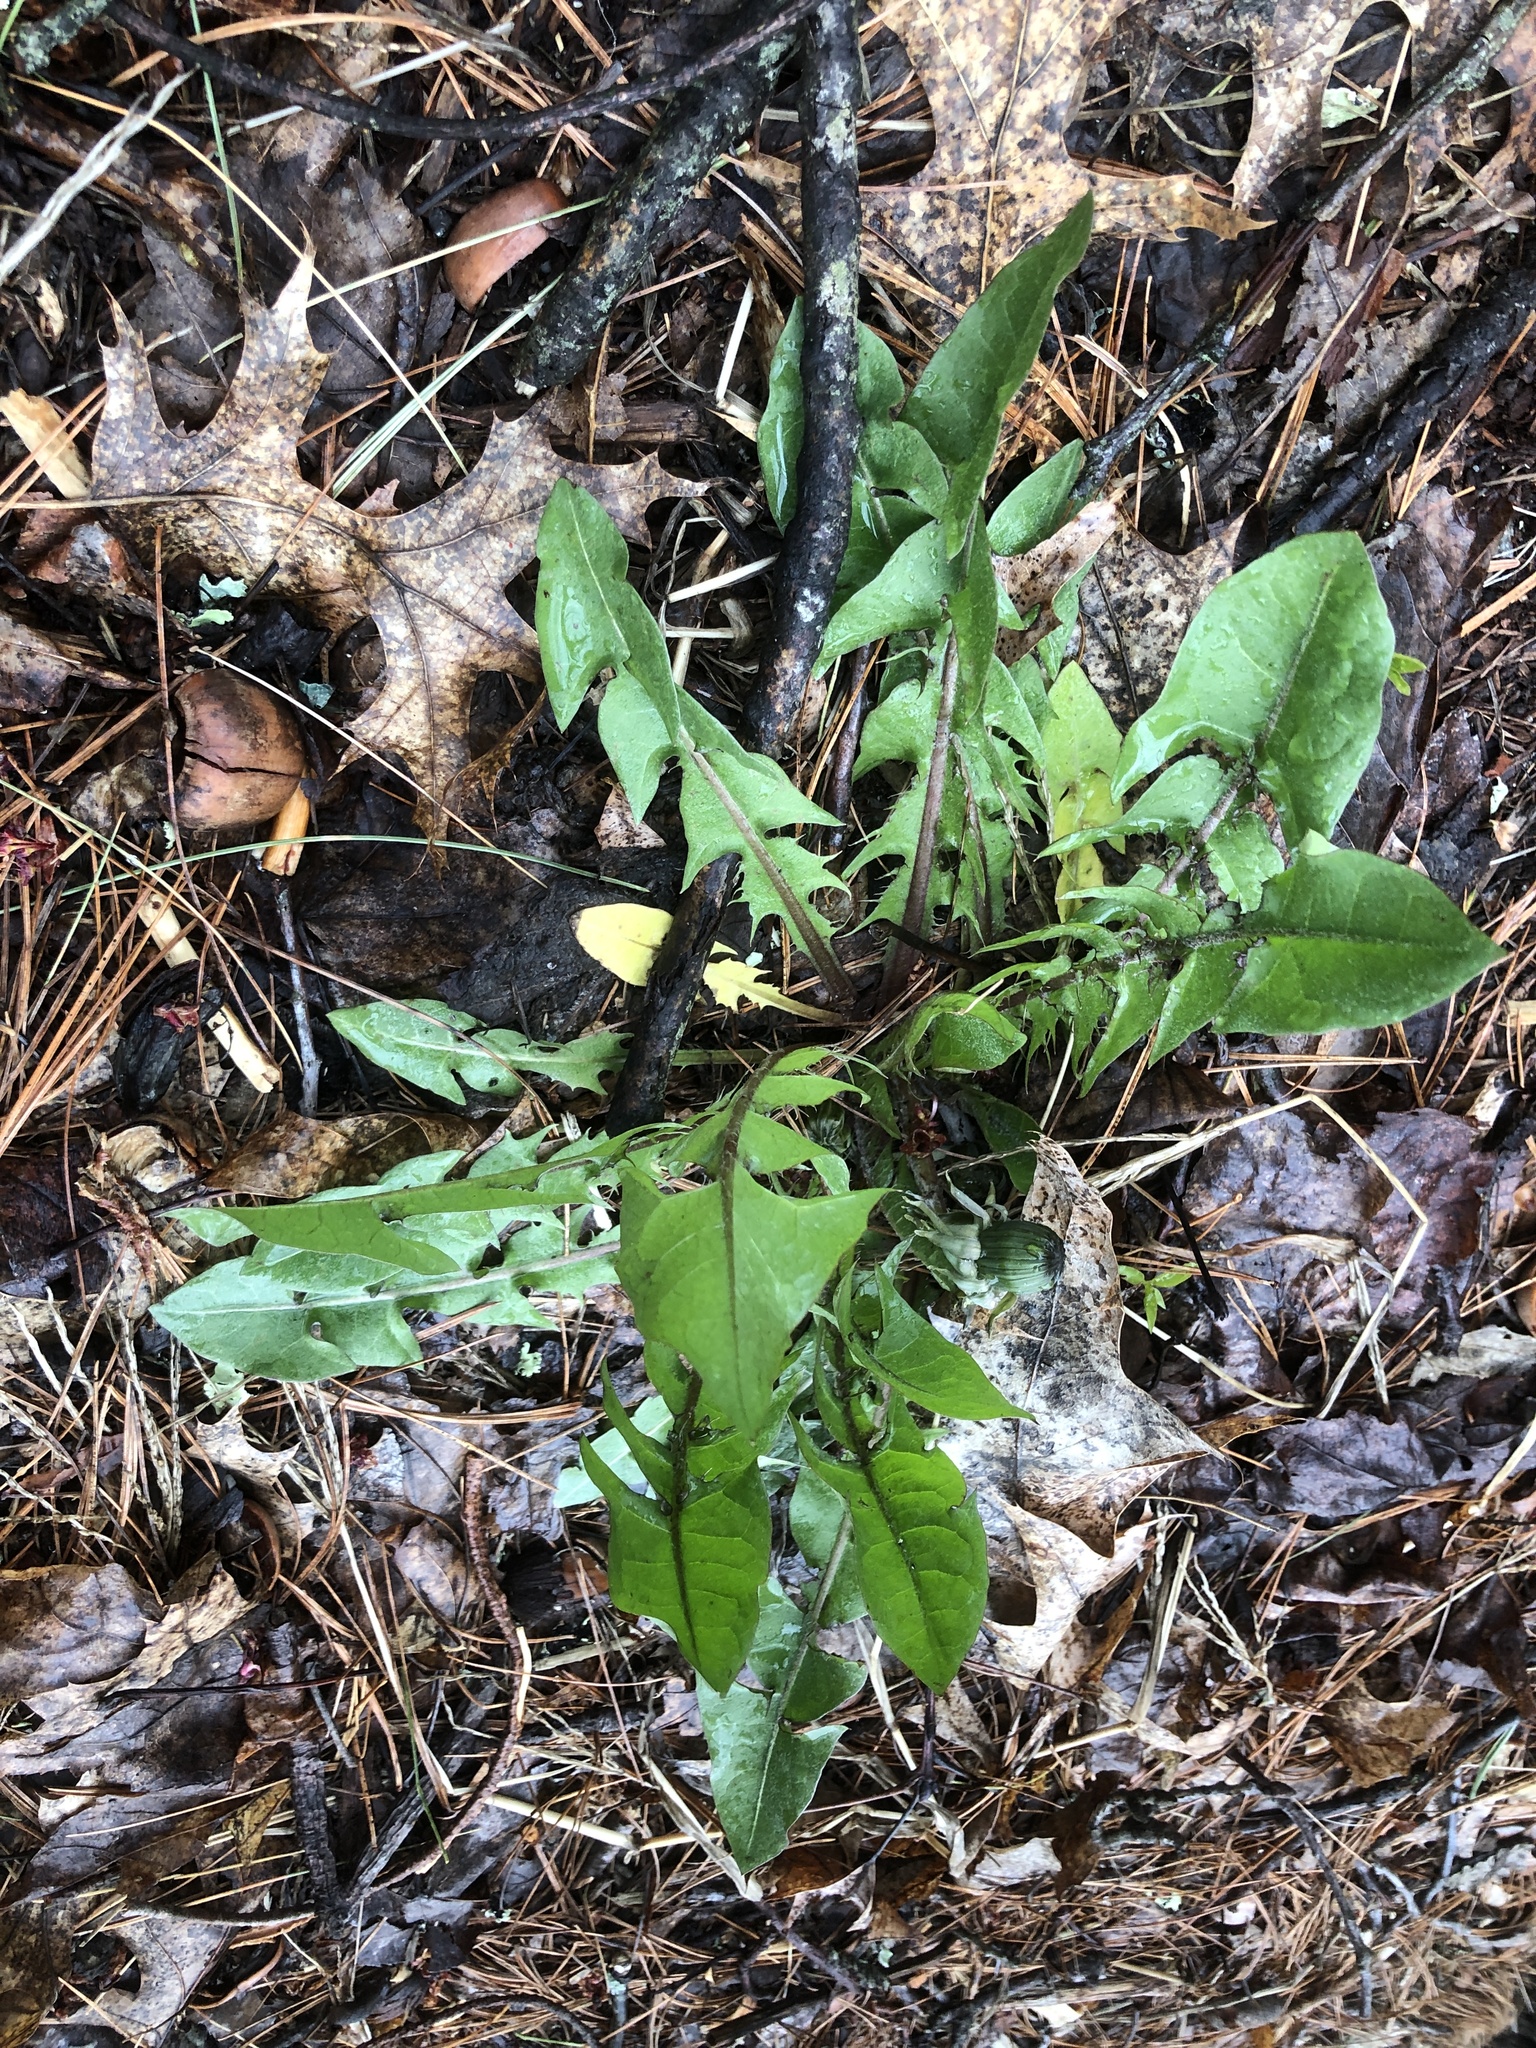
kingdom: Plantae
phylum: Tracheophyta
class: Magnoliopsida
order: Asterales
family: Asteraceae
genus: Taraxacum
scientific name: Taraxacum officinale
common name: Common dandelion
